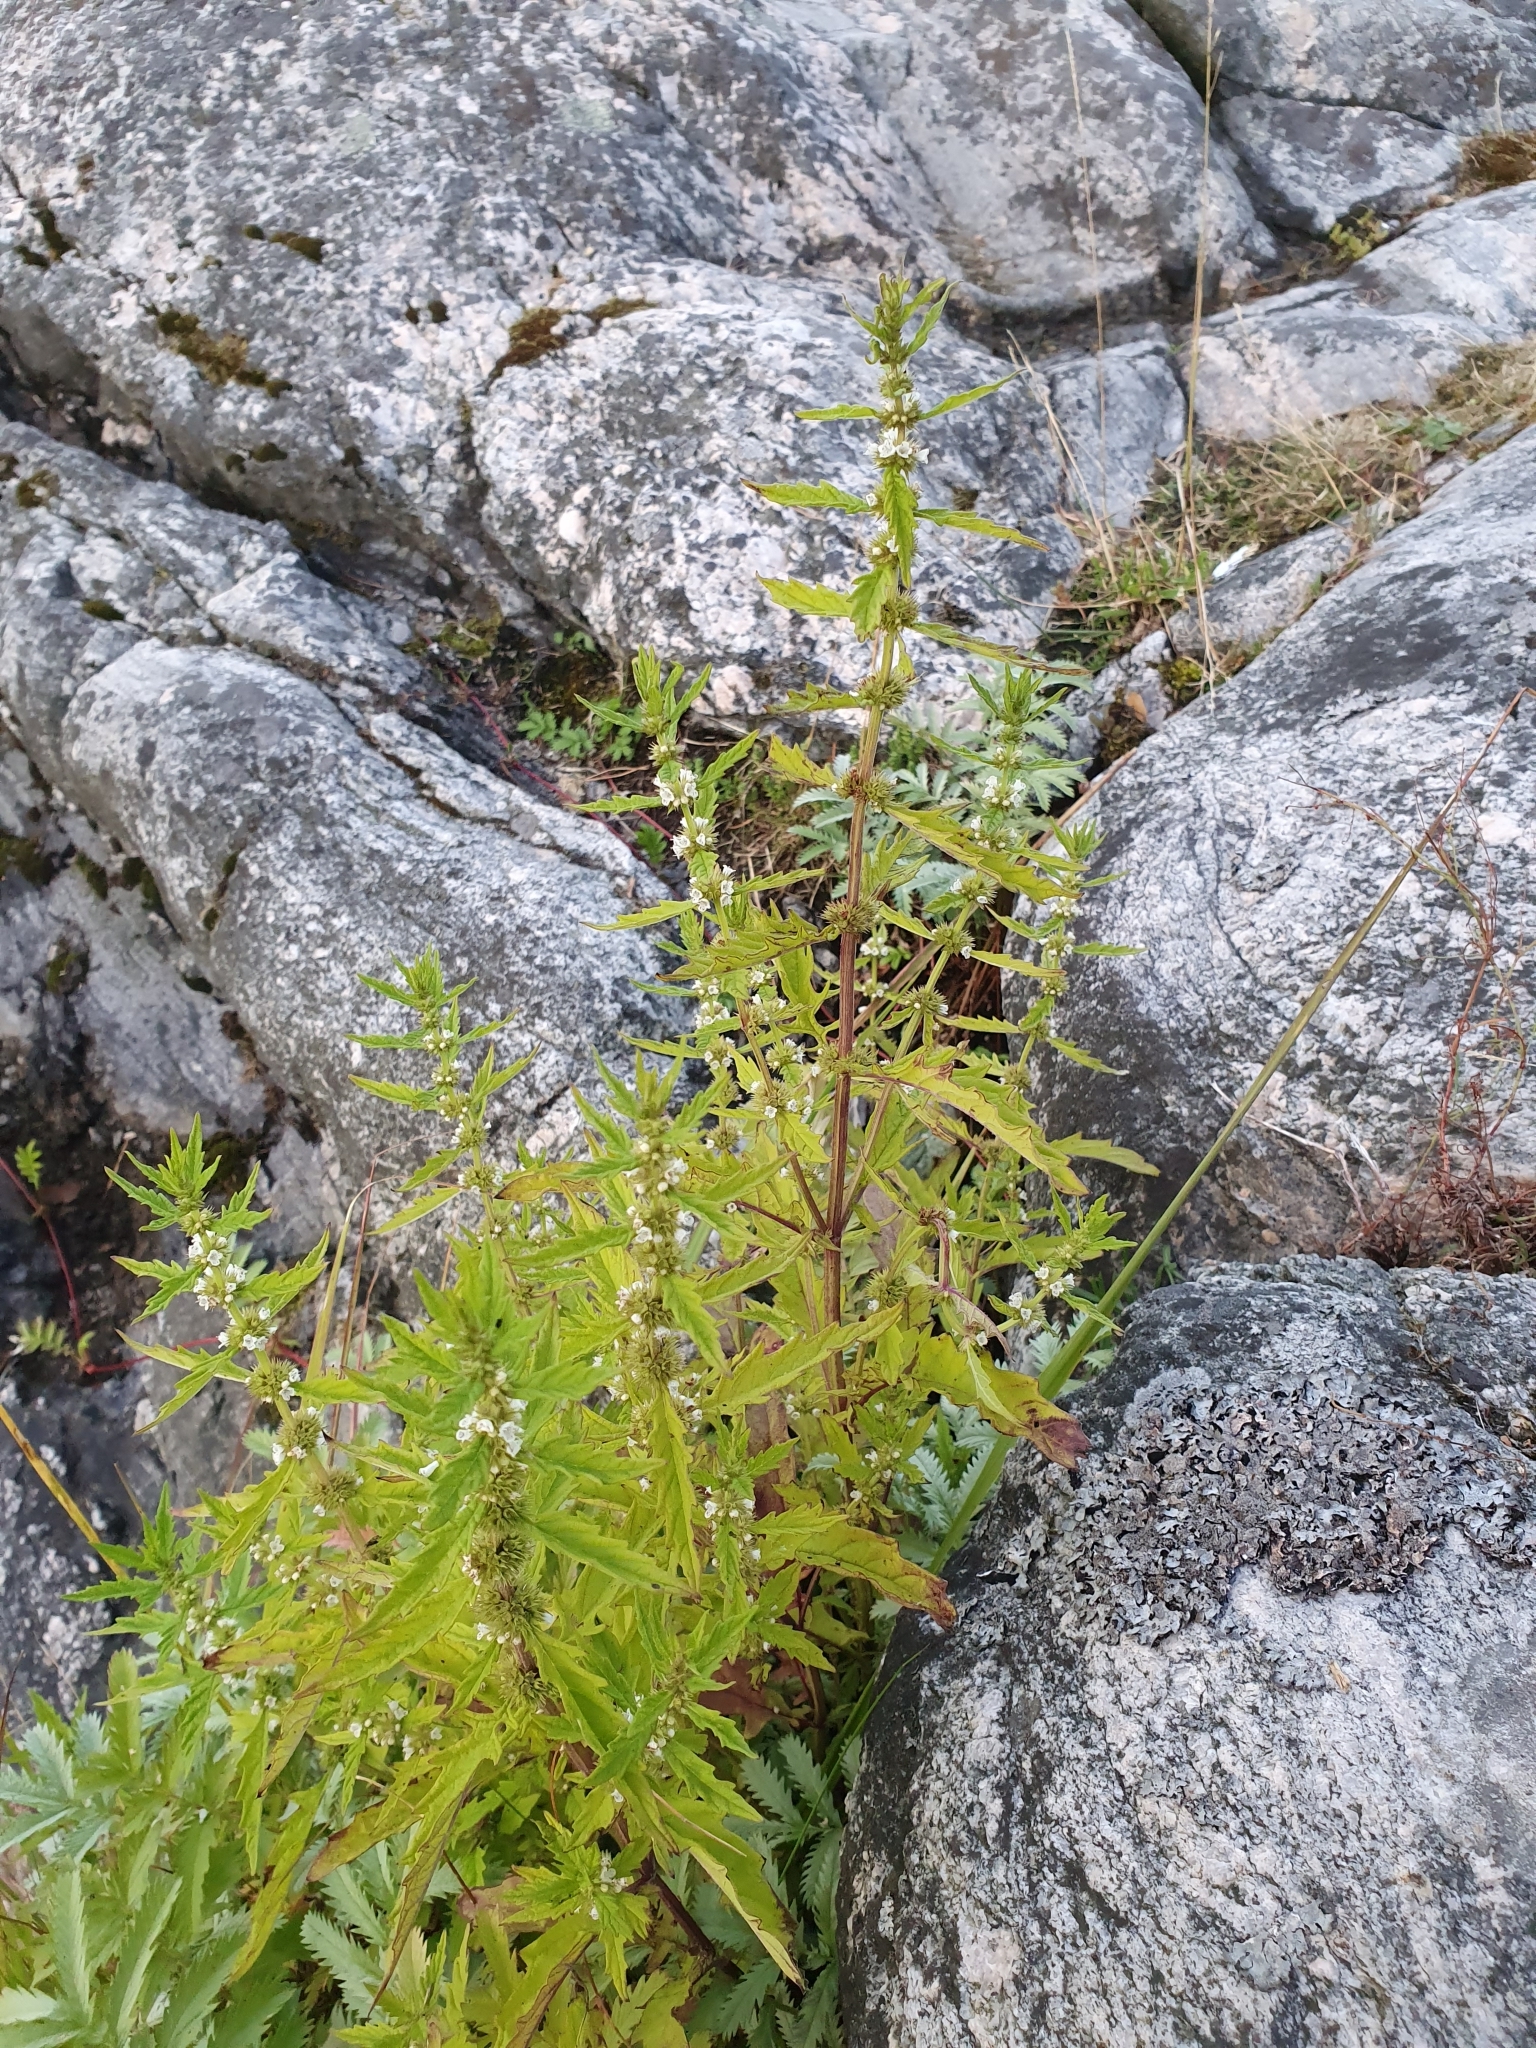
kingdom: Plantae
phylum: Tracheophyta
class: Magnoliopsida
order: Lamiales
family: Lamiaceae
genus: Lycopus
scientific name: Lycopus europaeus
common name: European bugleweed
